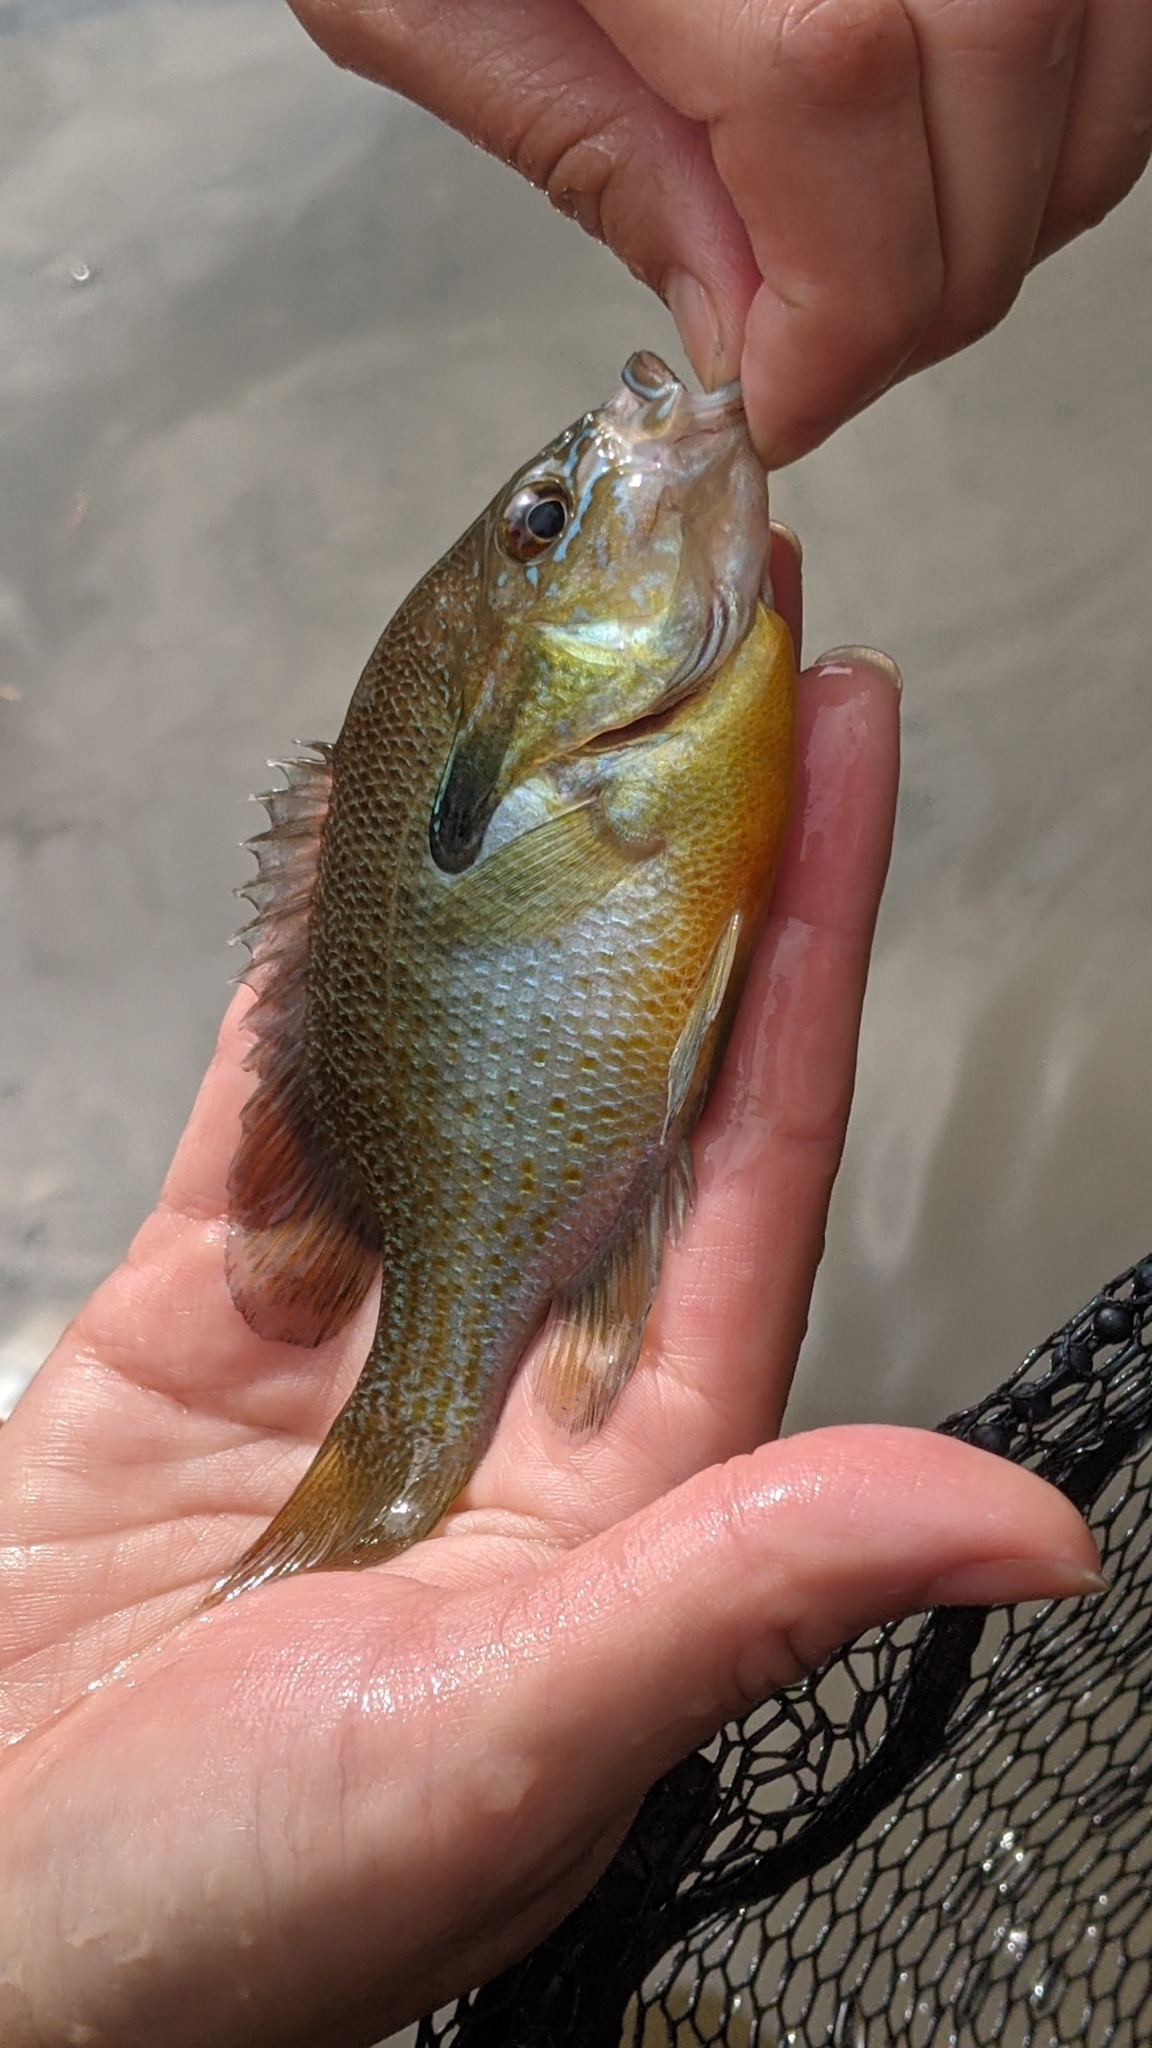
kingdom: Animalia
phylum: Chordata
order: Perciformes
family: Centrarchidae
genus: Lepomis
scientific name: Lepomis auritus
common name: Redbreast sunfish
